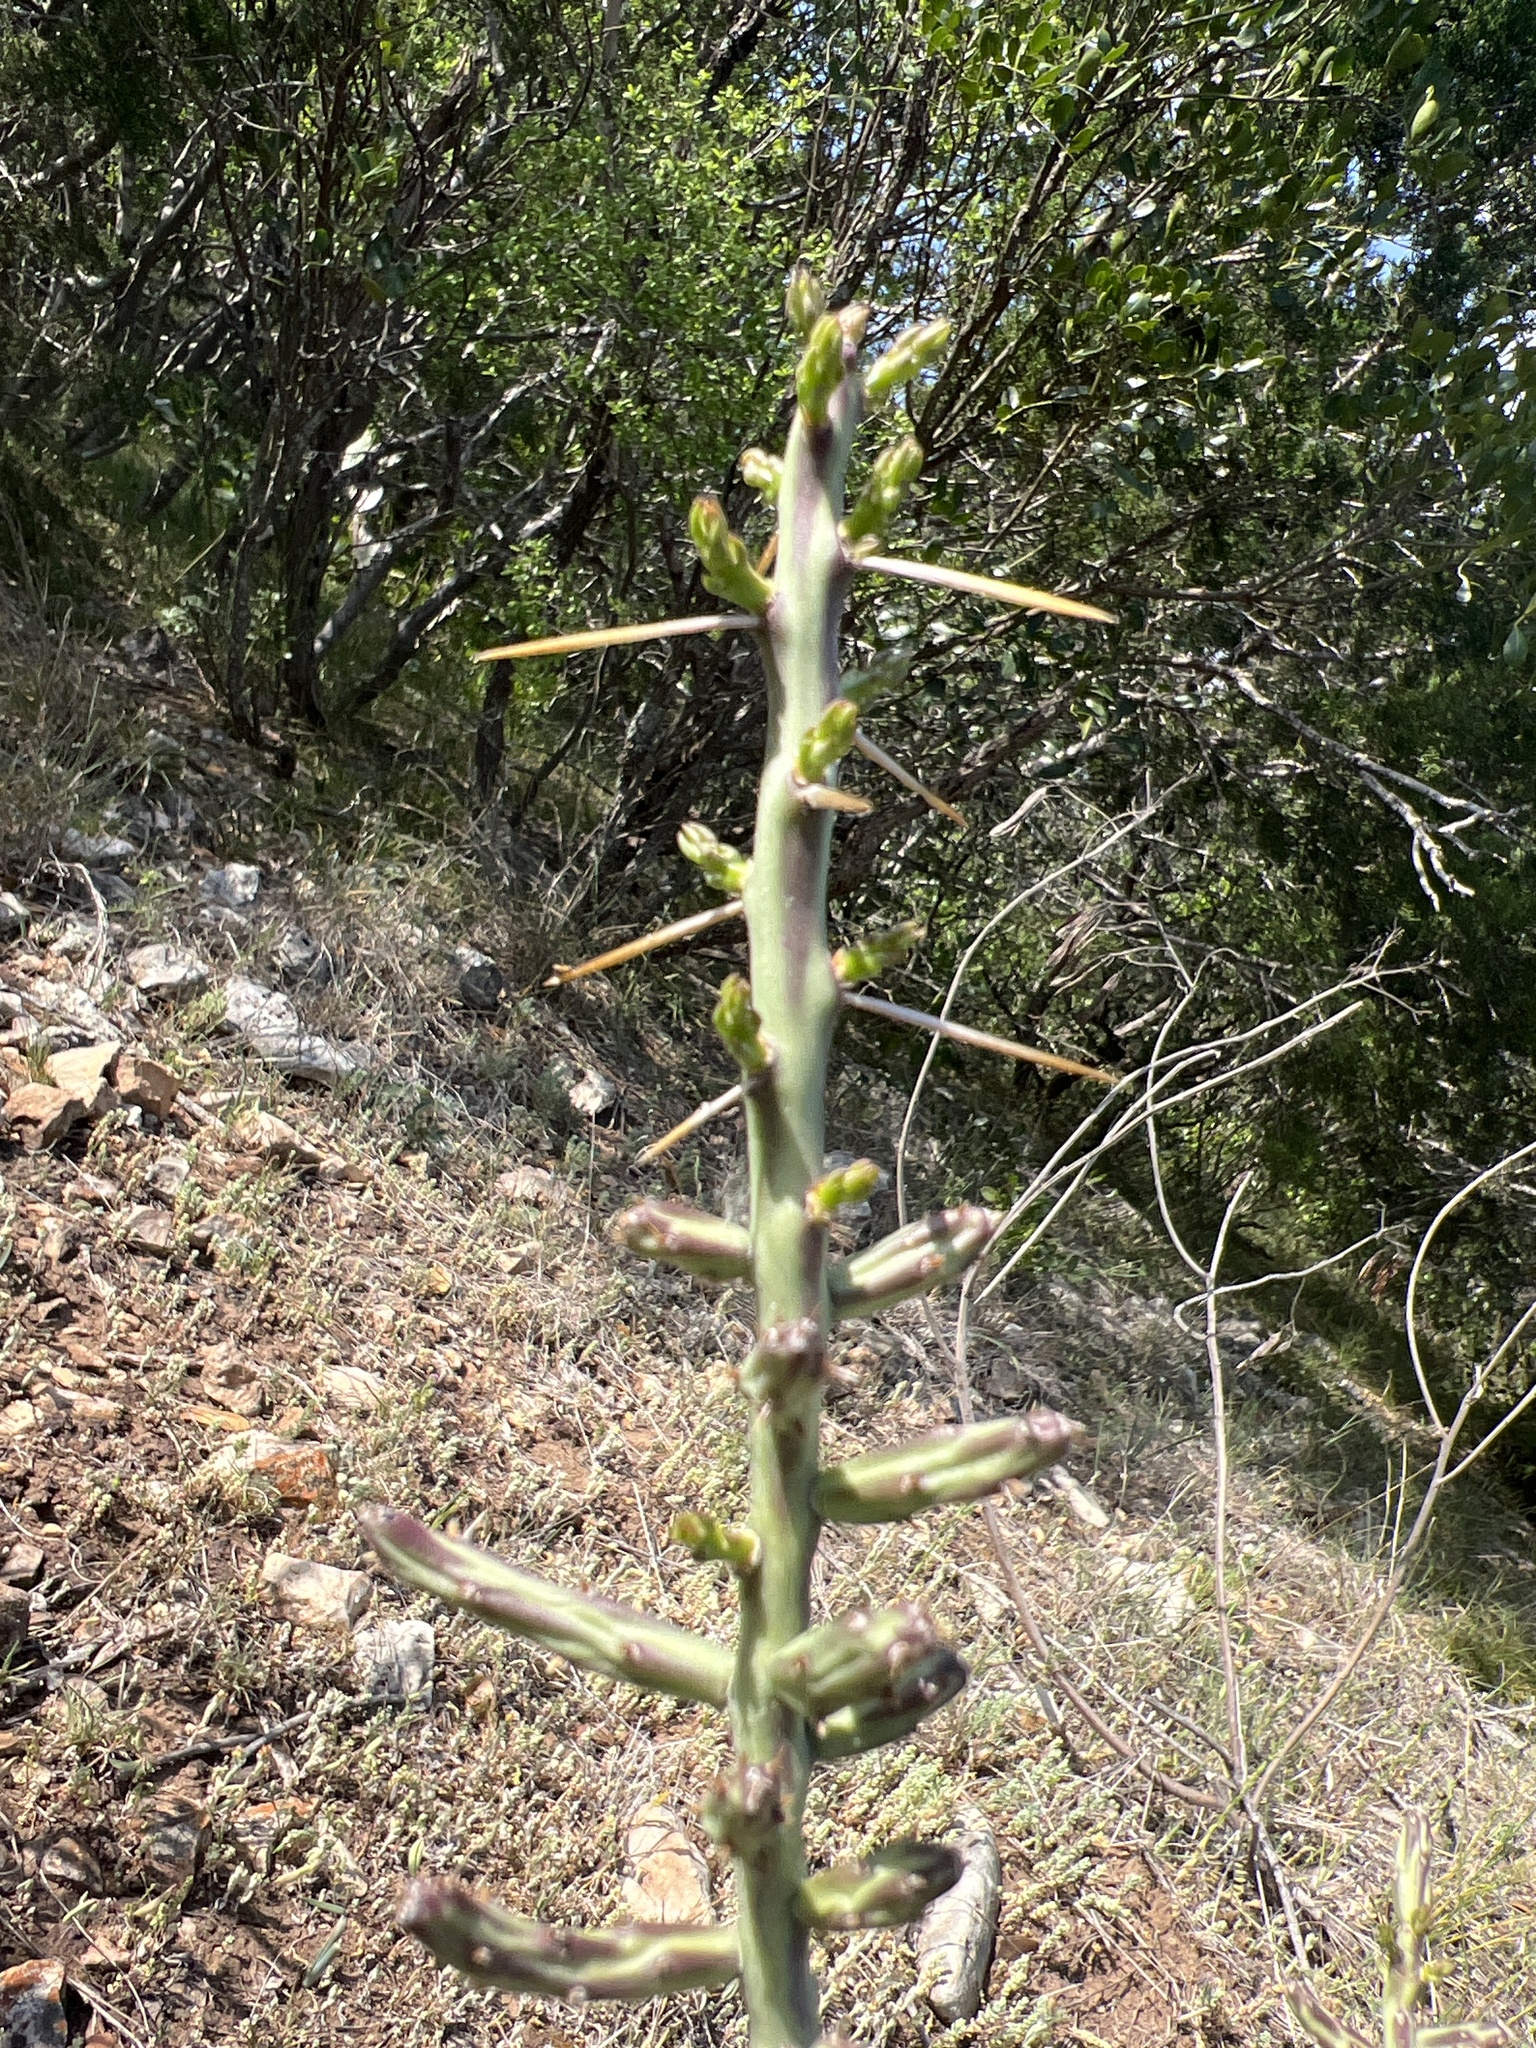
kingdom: Plantae
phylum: Tracheophyta
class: Magnoliopsida
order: Caryophyllales
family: Cactaceae
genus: Cylindropuntia
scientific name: Cylindropuntia leptocaulis
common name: Christmas cactus
